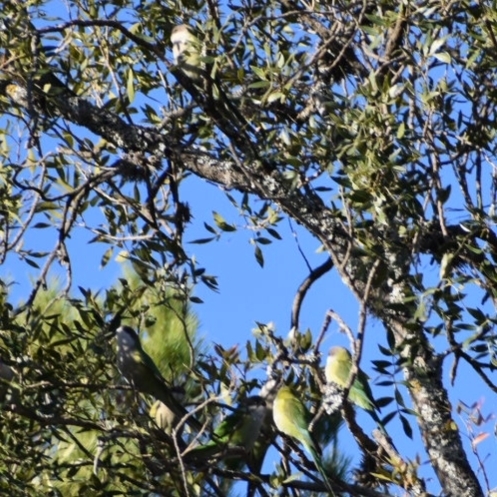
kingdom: Animalia
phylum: Chordata
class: Aves
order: Psittaciformes
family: Psittacidae
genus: Psilopsiagon
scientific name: Psilopsiagon aymara
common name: Grey-hooded parakeet
